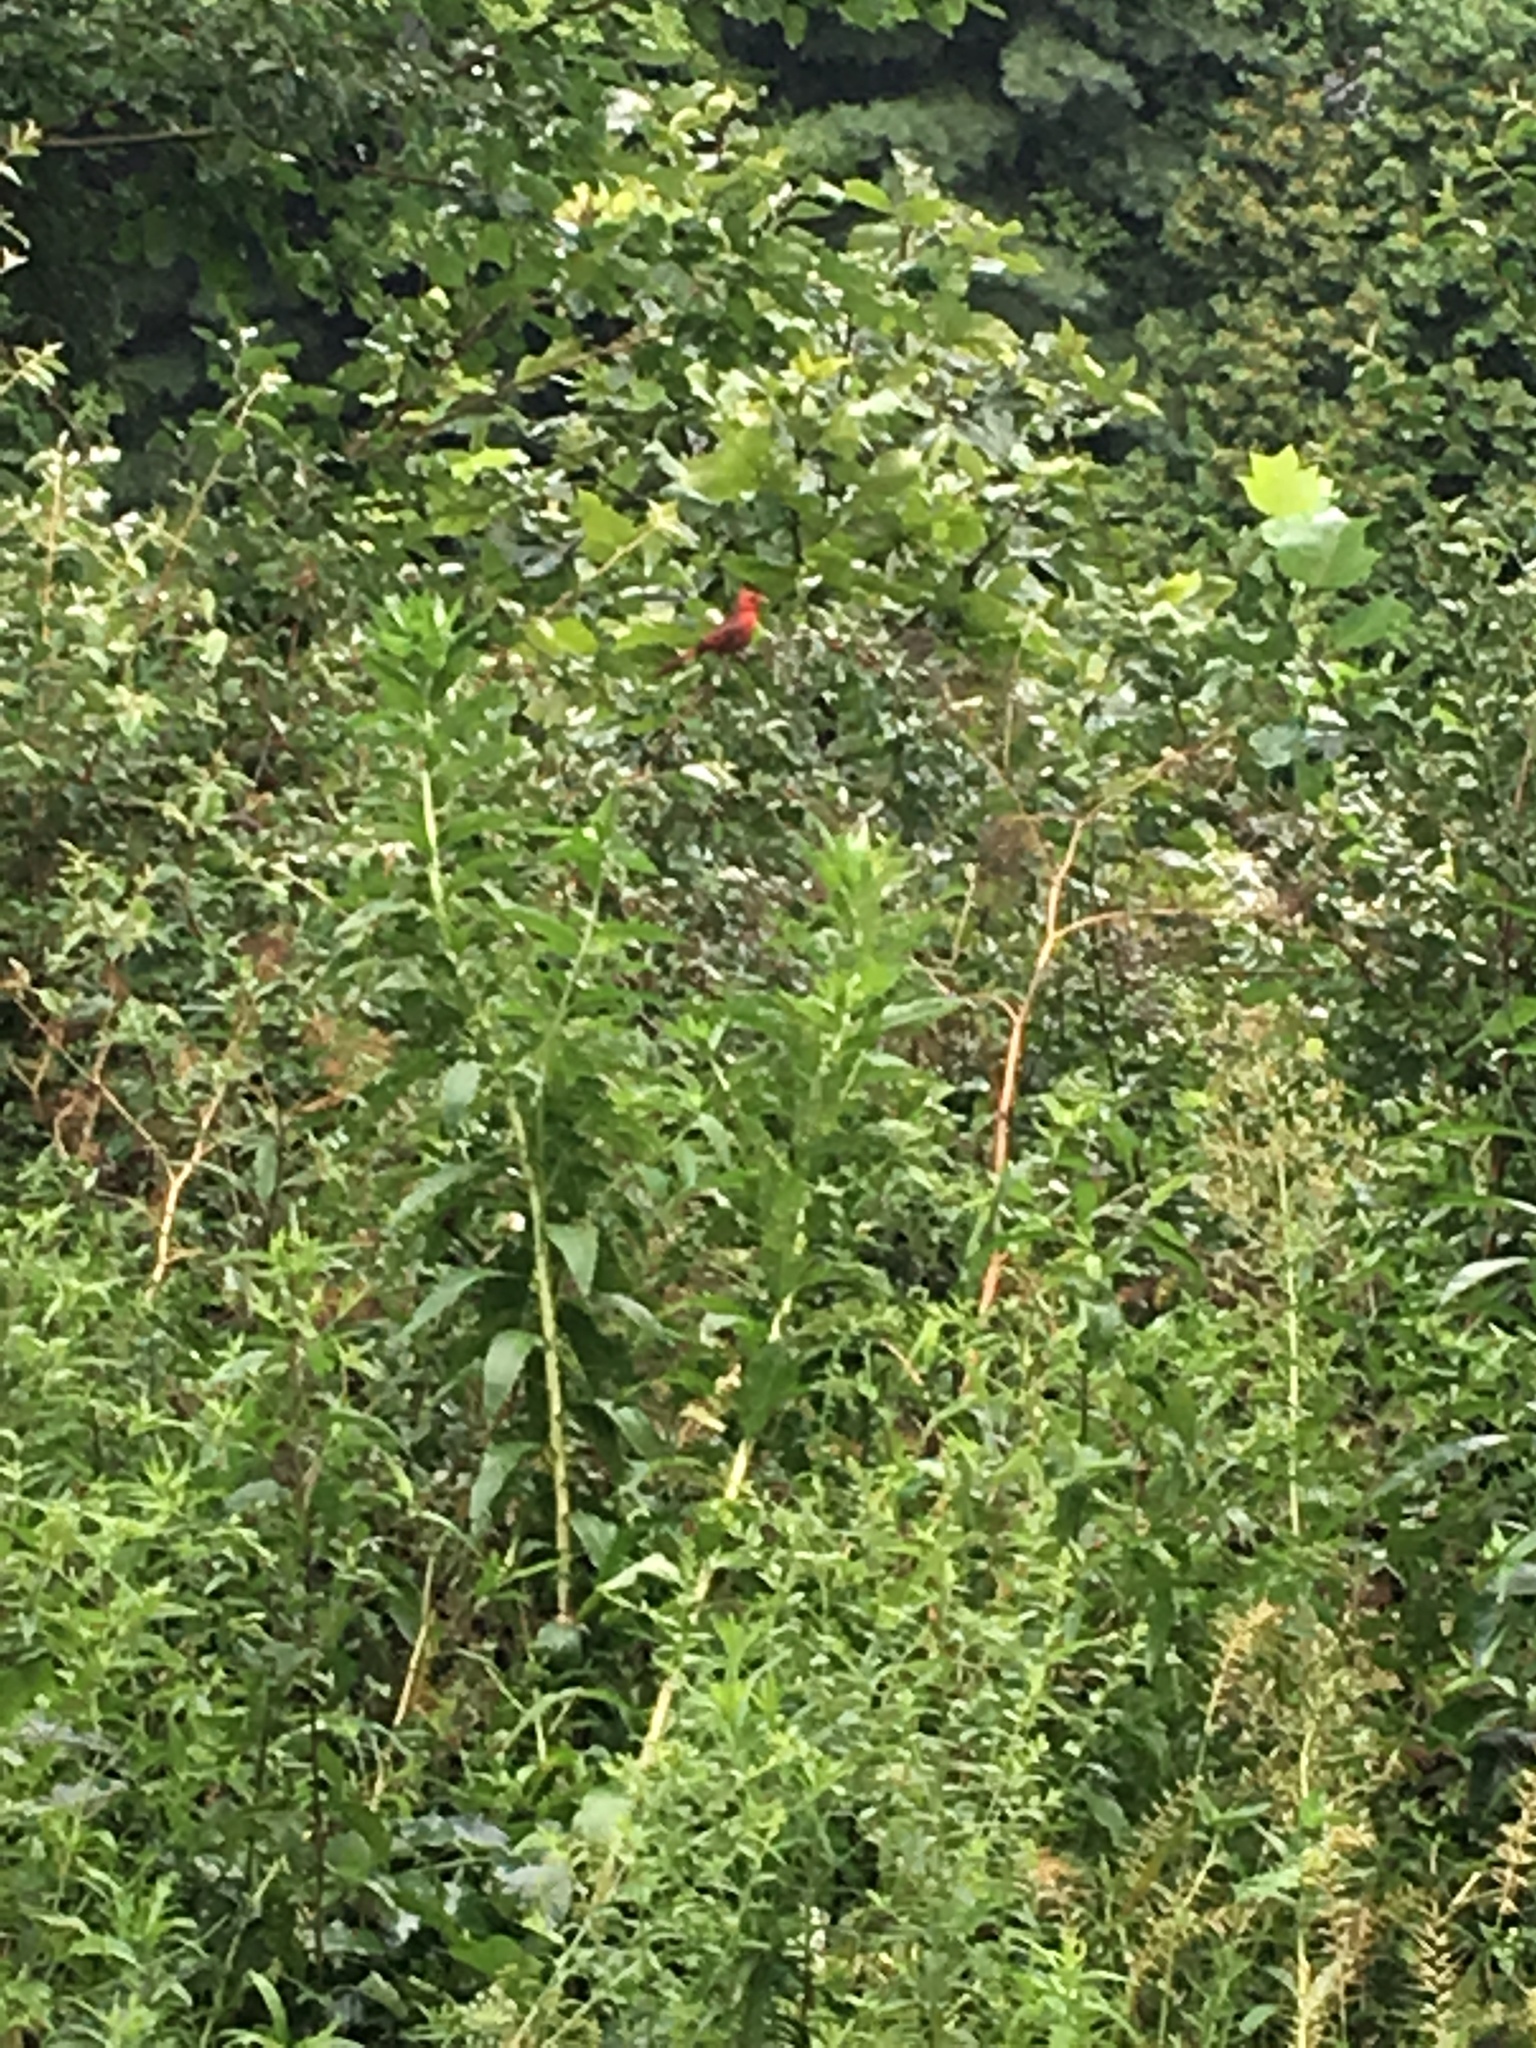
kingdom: Animalia
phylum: Chordata
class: Aves
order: Passeriformes
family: Cardinalidae
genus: Cardinalis
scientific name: Cardinalis cardinalis
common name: Northern cardinal
